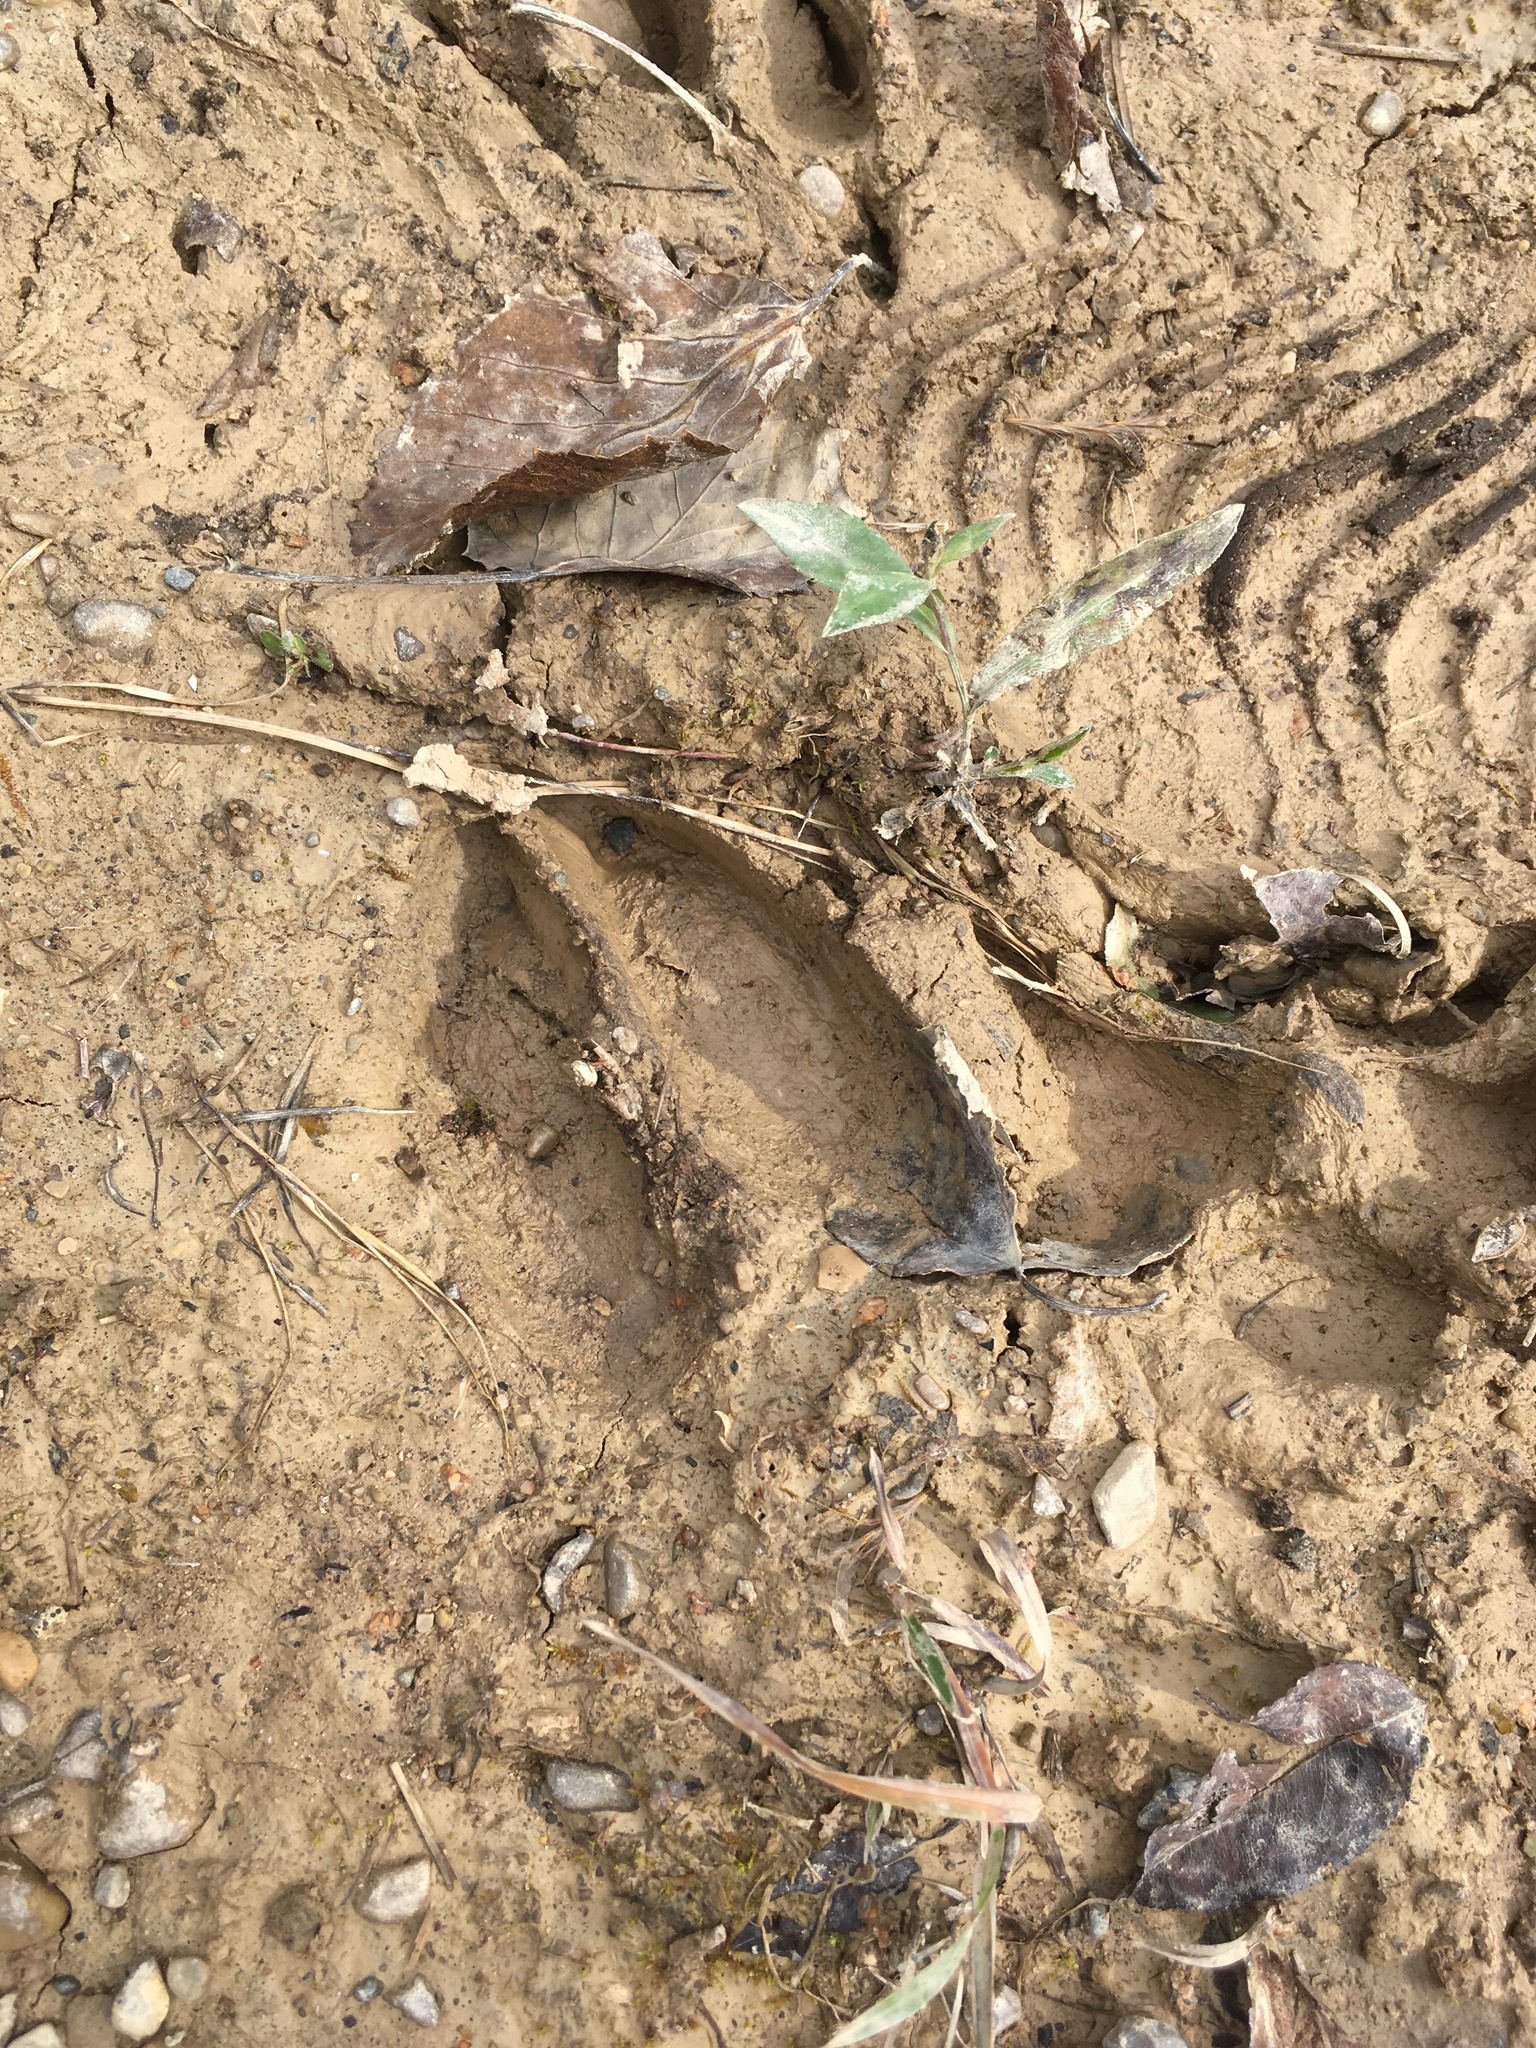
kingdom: Animalia
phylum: Chordata
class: Mammalia
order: Artiodactyla
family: Cervidae
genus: Odocoileus
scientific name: Odocoileus virginianus
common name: White-tailed deer
